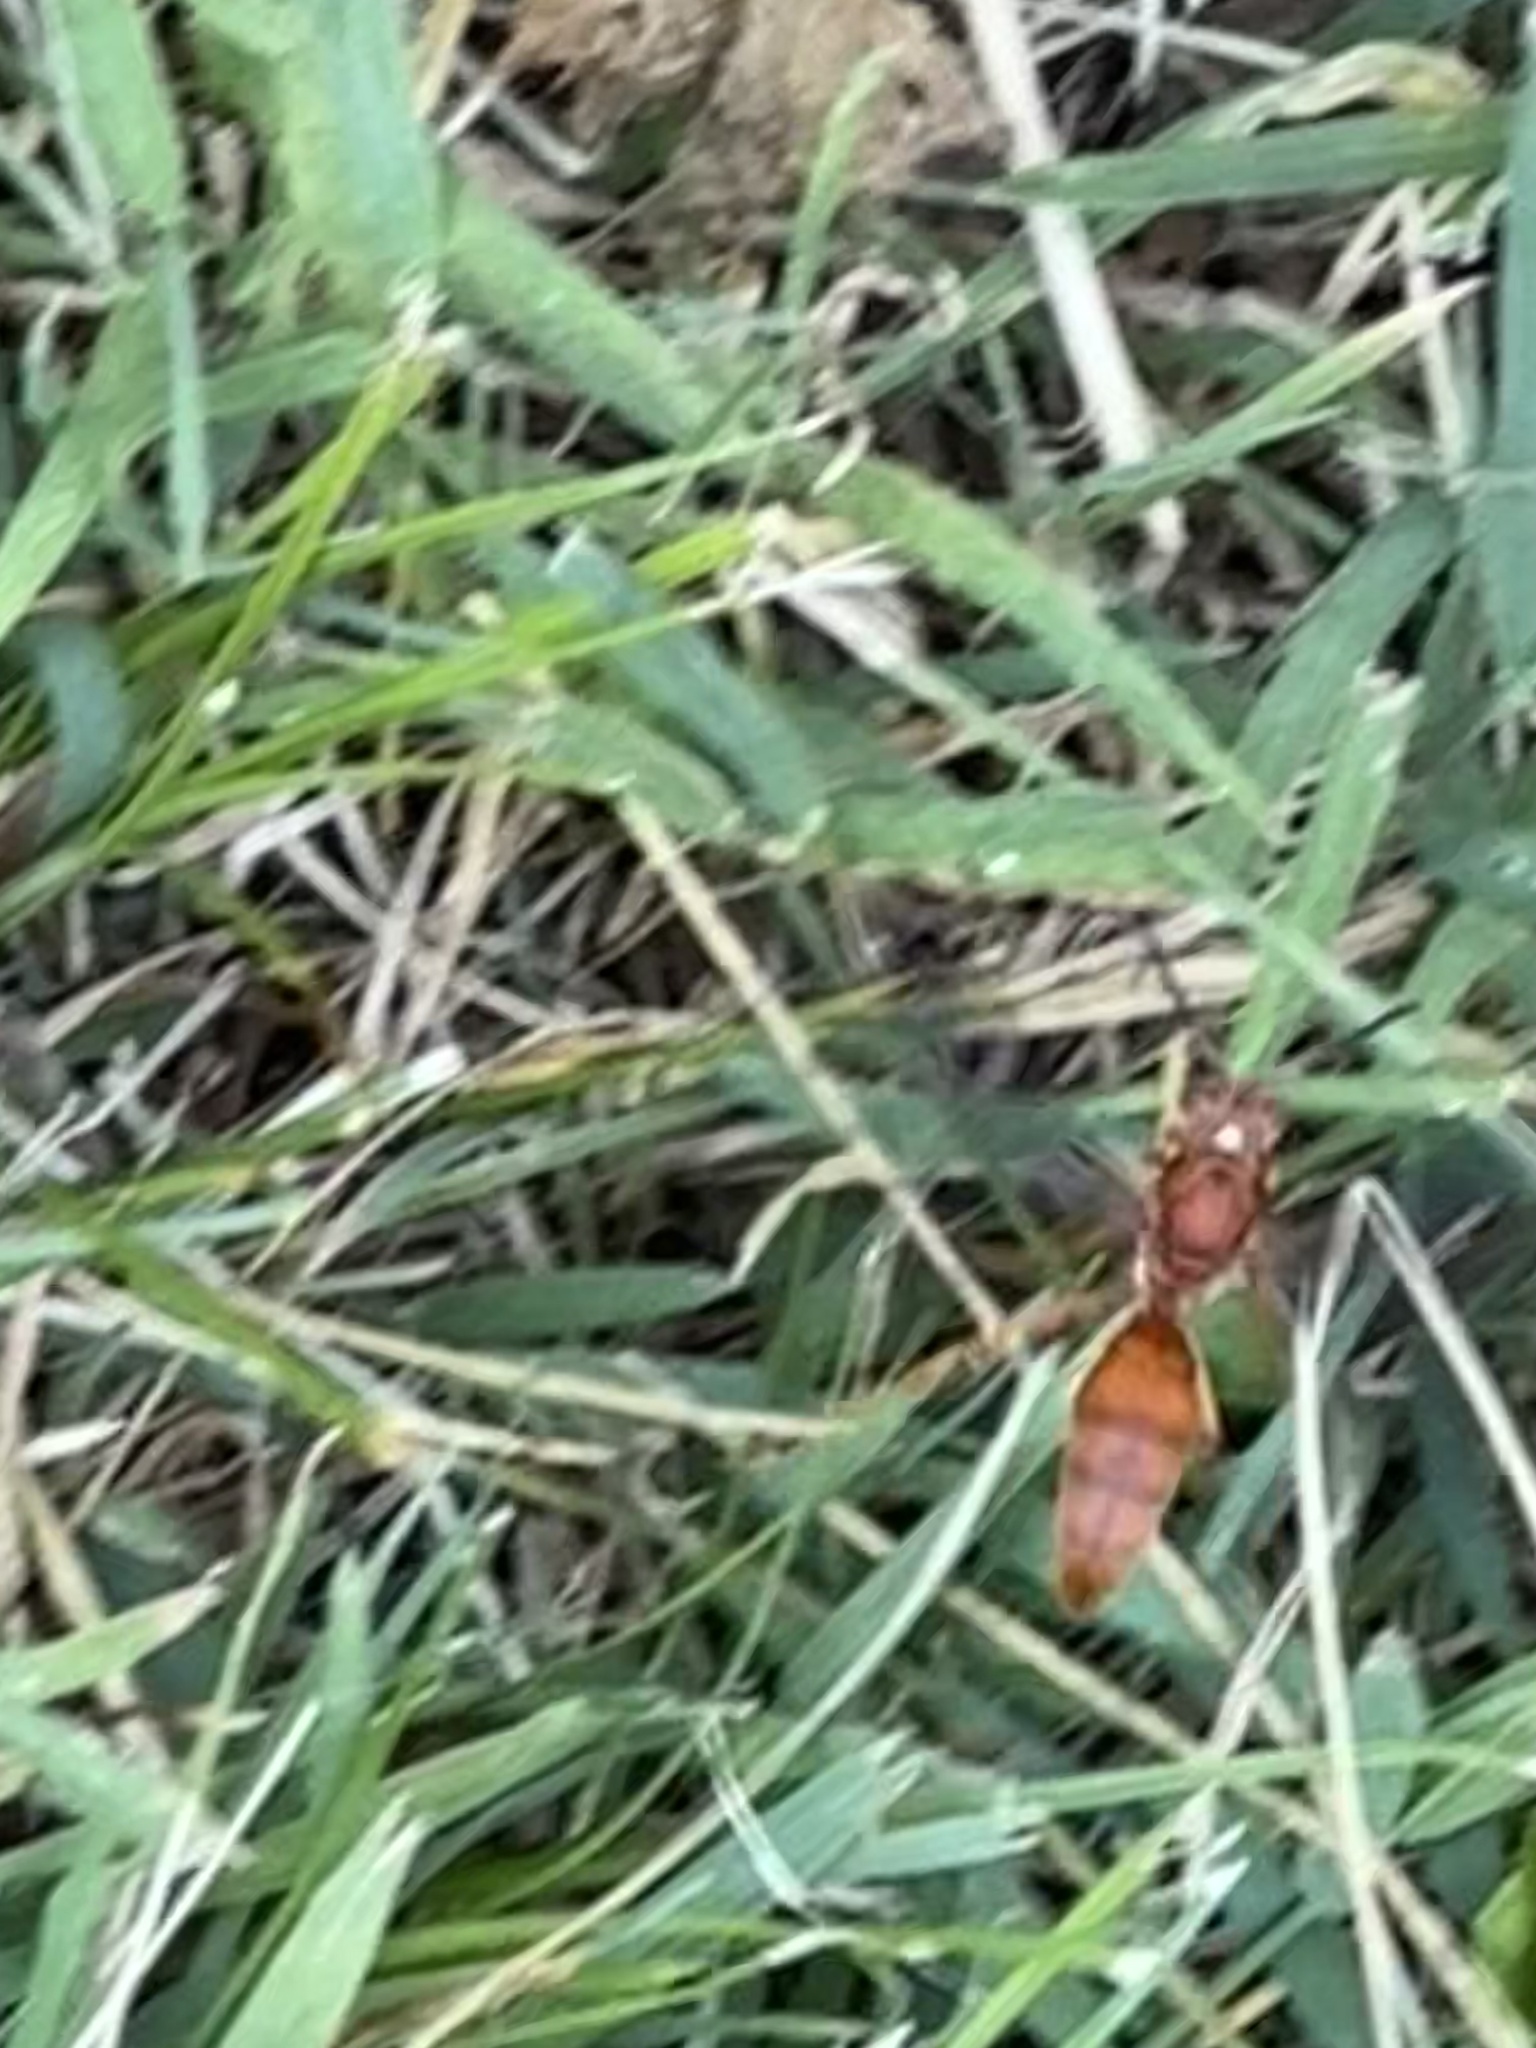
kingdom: Animalia
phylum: Arthropoda
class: Insecta
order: Hymenoptera
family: Vespidae
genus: Fuscopolistes
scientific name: Fuscopolistes
